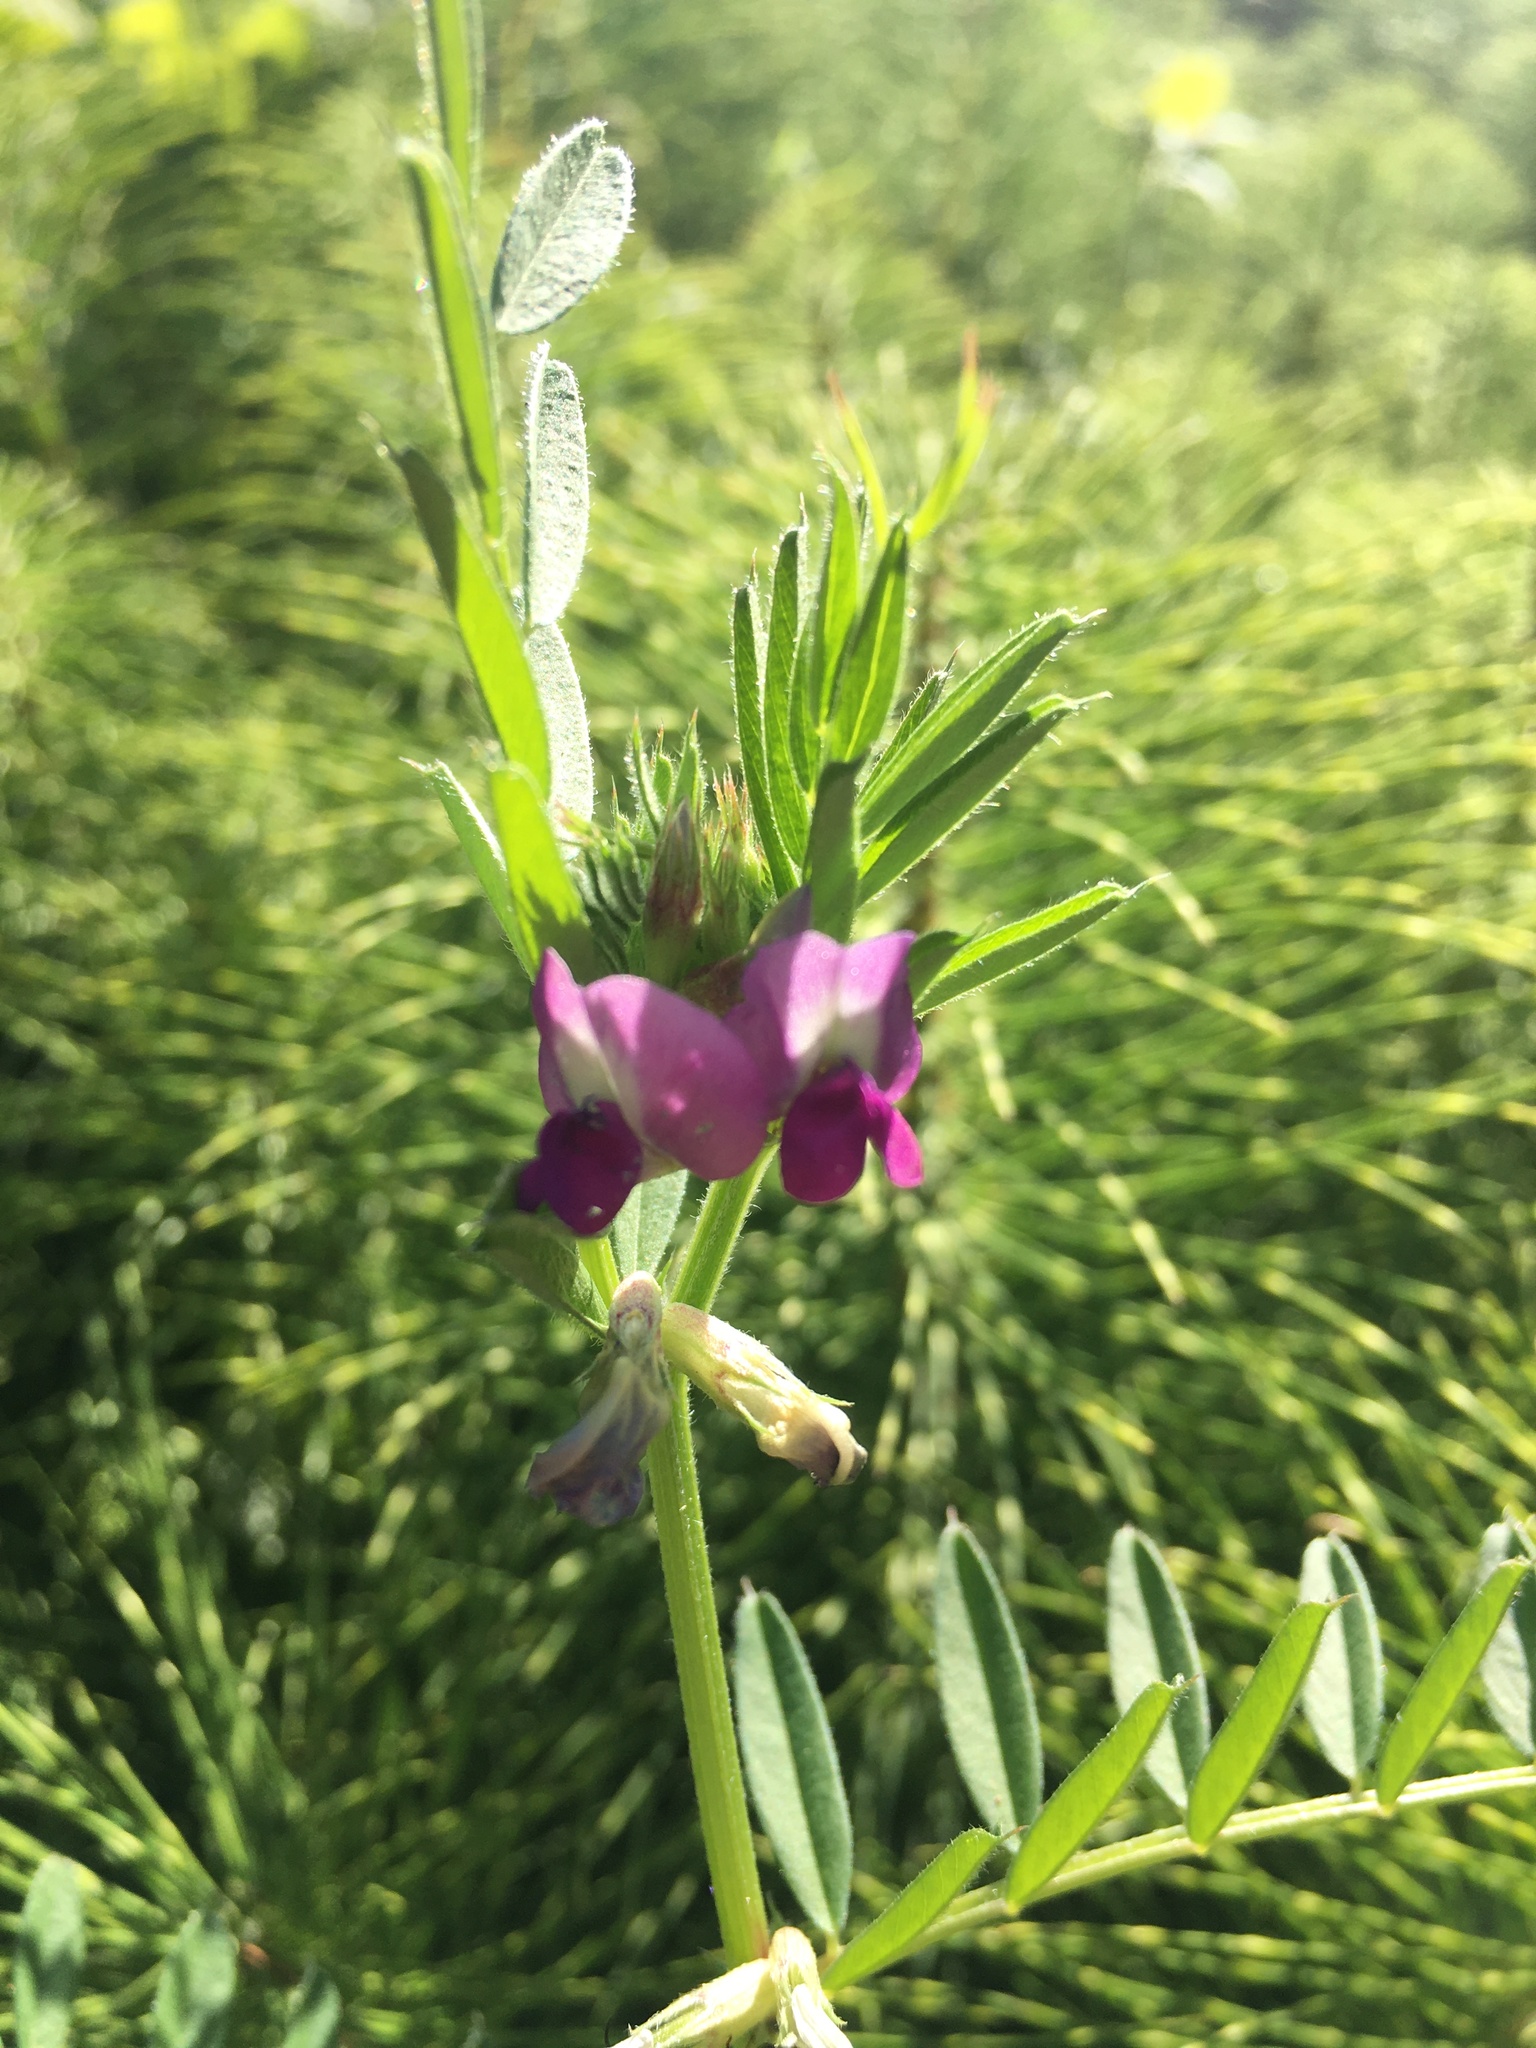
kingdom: Plantae
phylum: Tracheophyta
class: Magnoliopsida
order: Fabales
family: Fabaceae
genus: Vicia
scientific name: Vicia sativa
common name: Garden vetch
